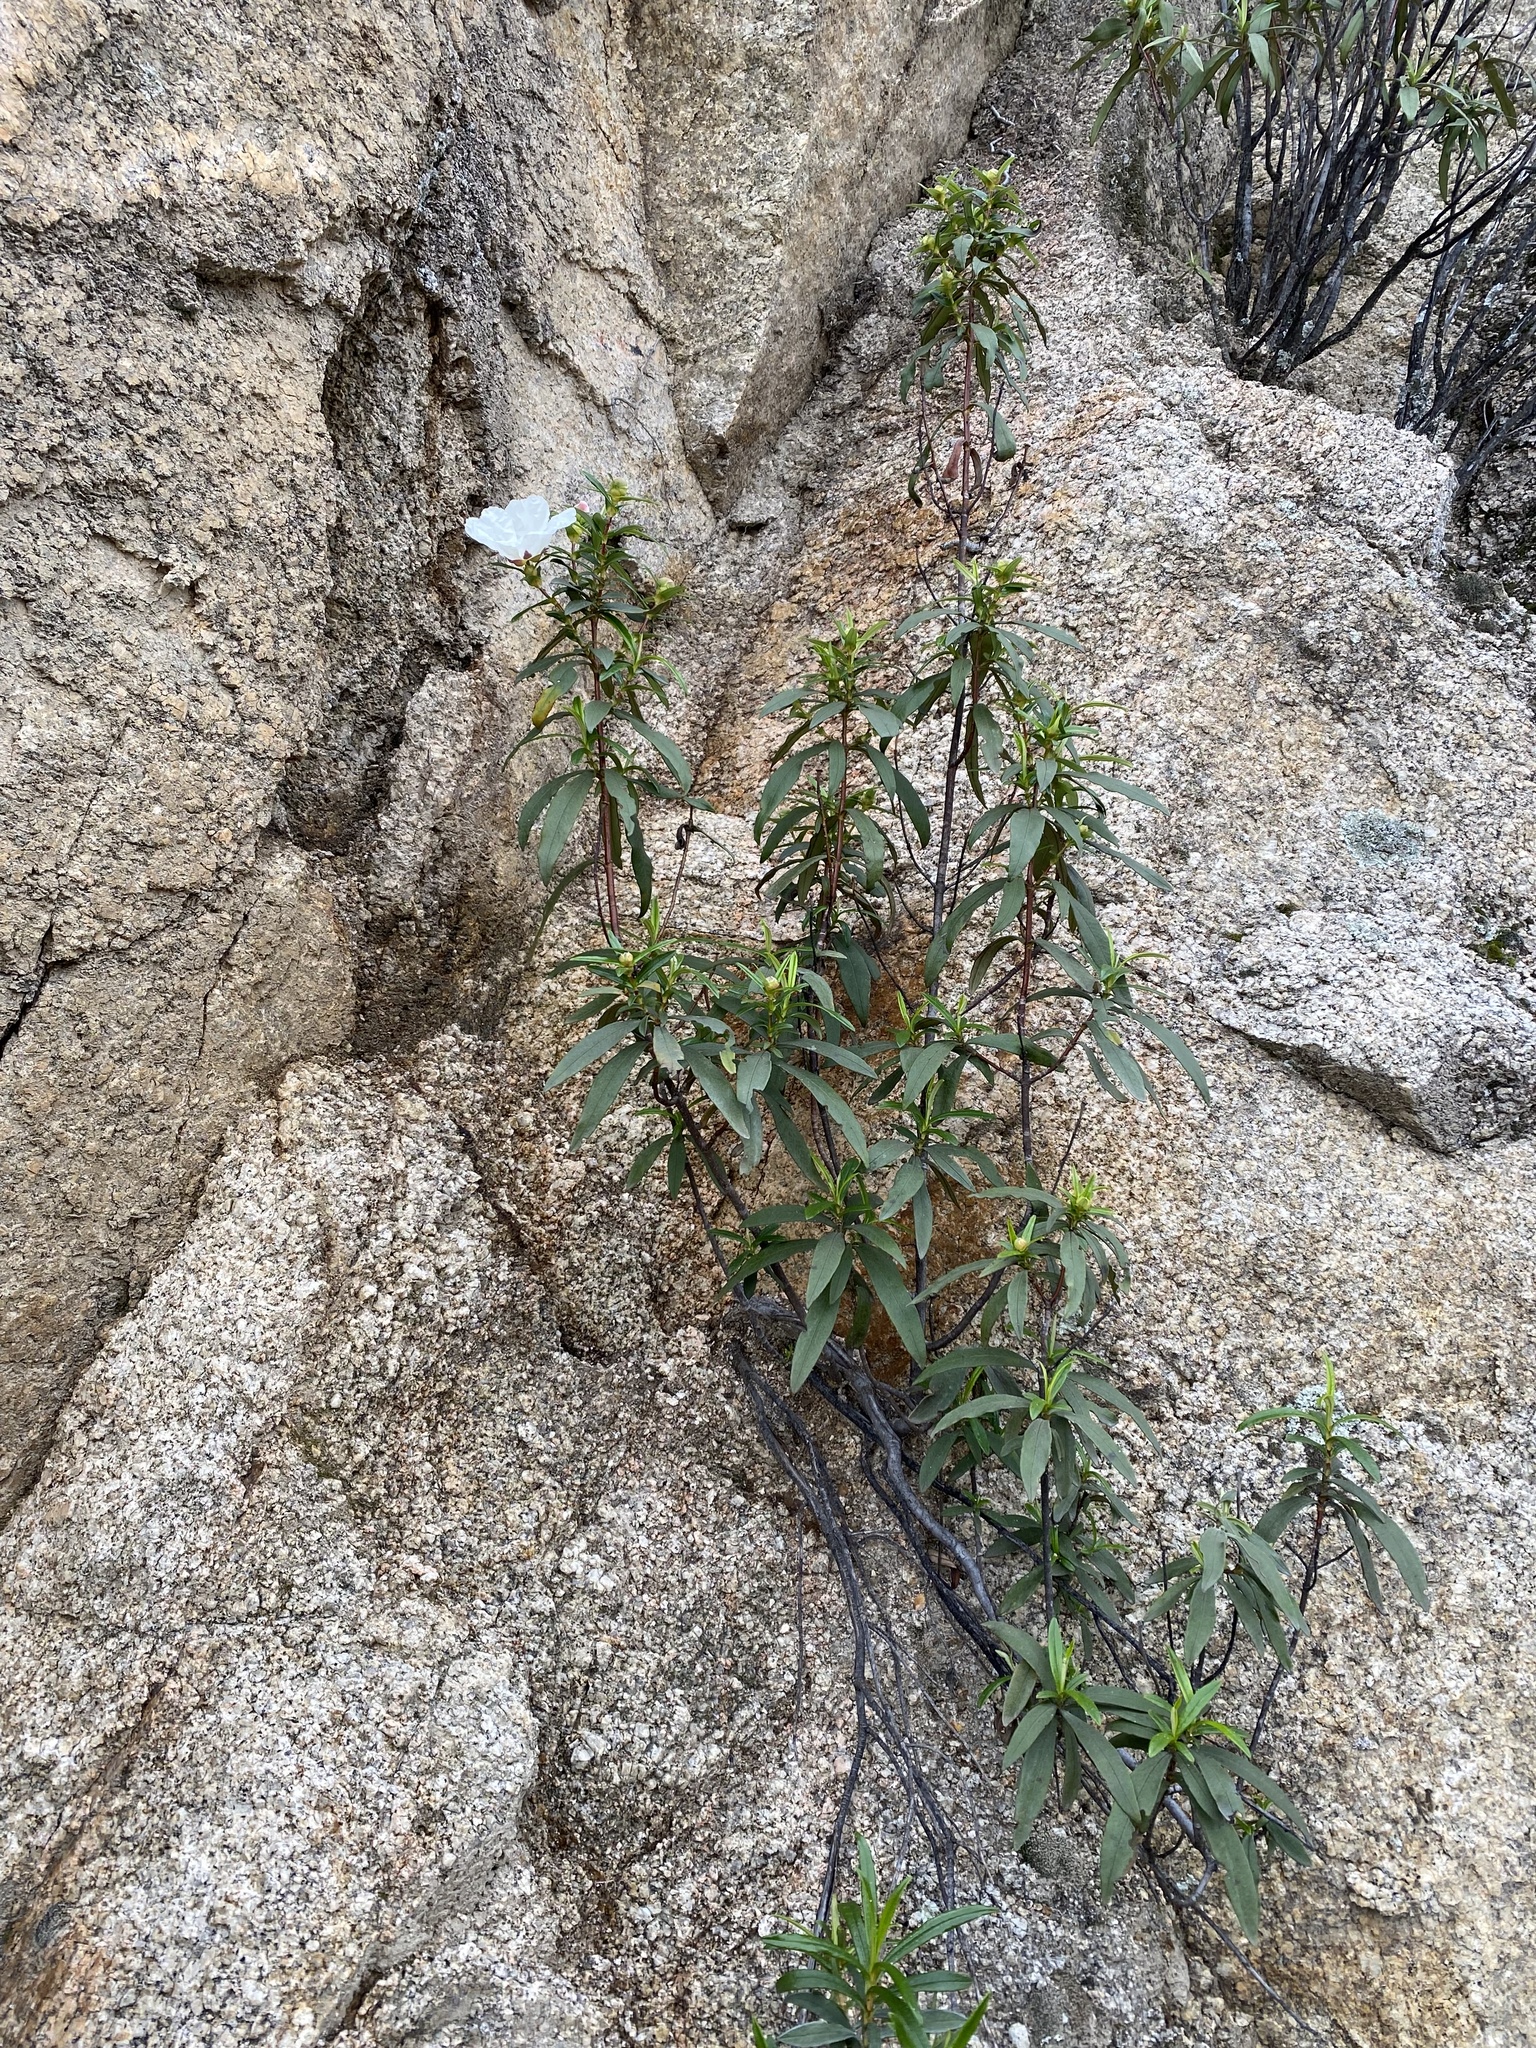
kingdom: Plantae
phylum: Tracheophyta
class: Magnoliopsida
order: Malvales
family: Cistaceae
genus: Cistus
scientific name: Cistus ladanifer
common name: Common gum cistus
